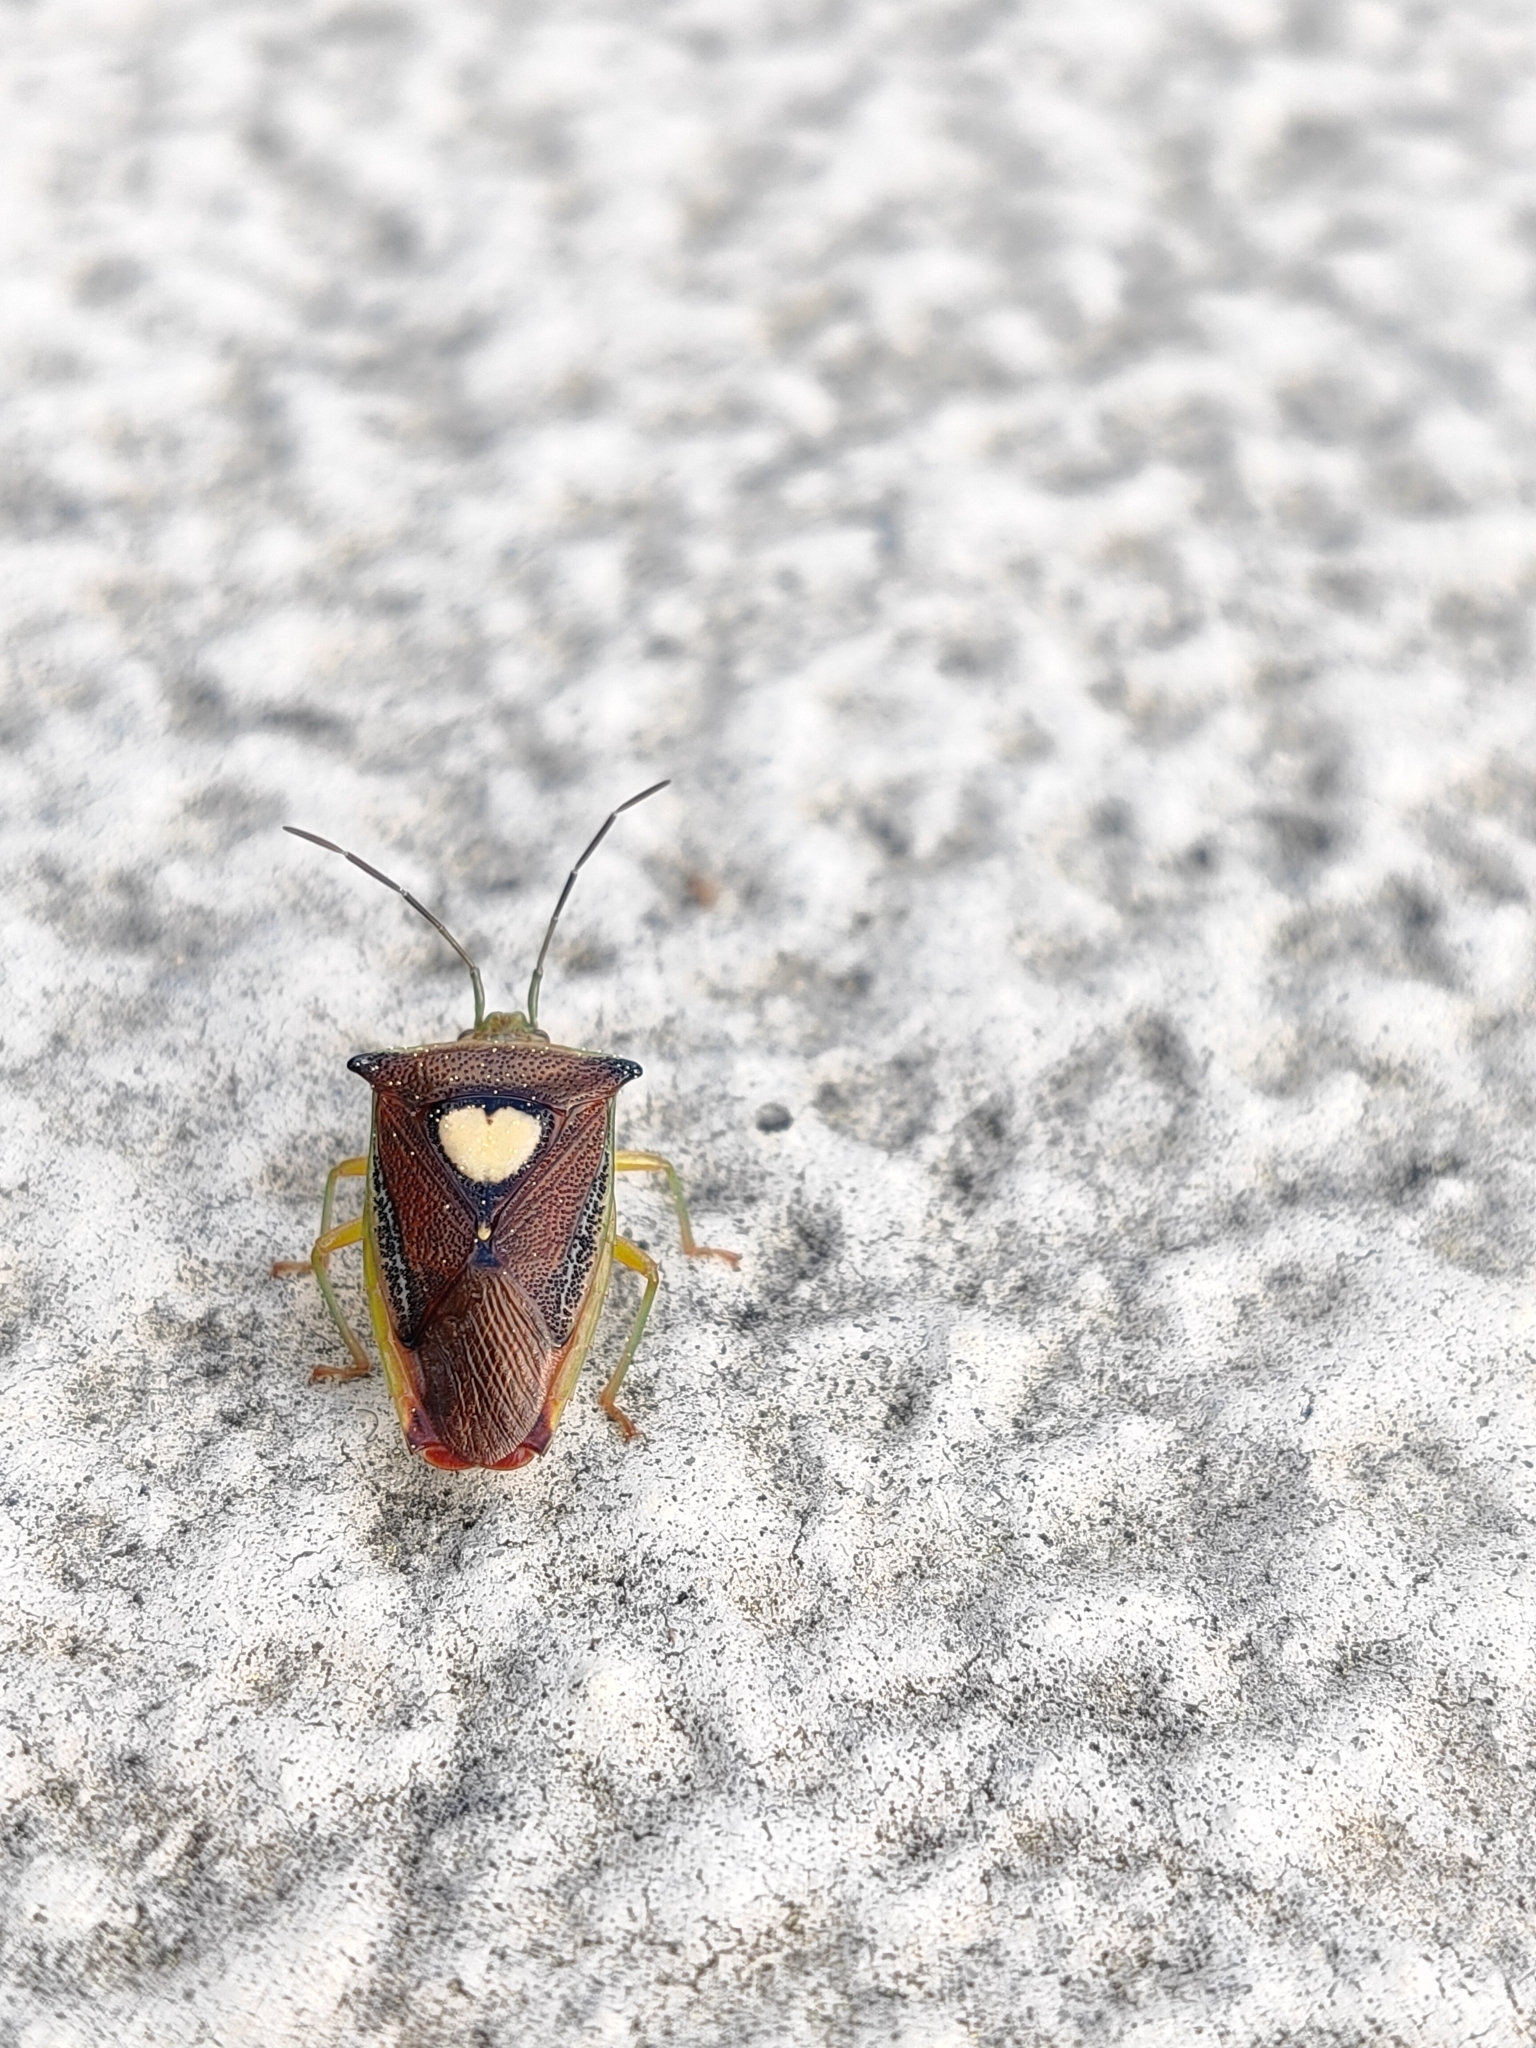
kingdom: Animalia
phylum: Arthropoda
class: Insecta
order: Hemiptera
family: Acanthosomatidae
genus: Sastragala
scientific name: Sastragala esakii
